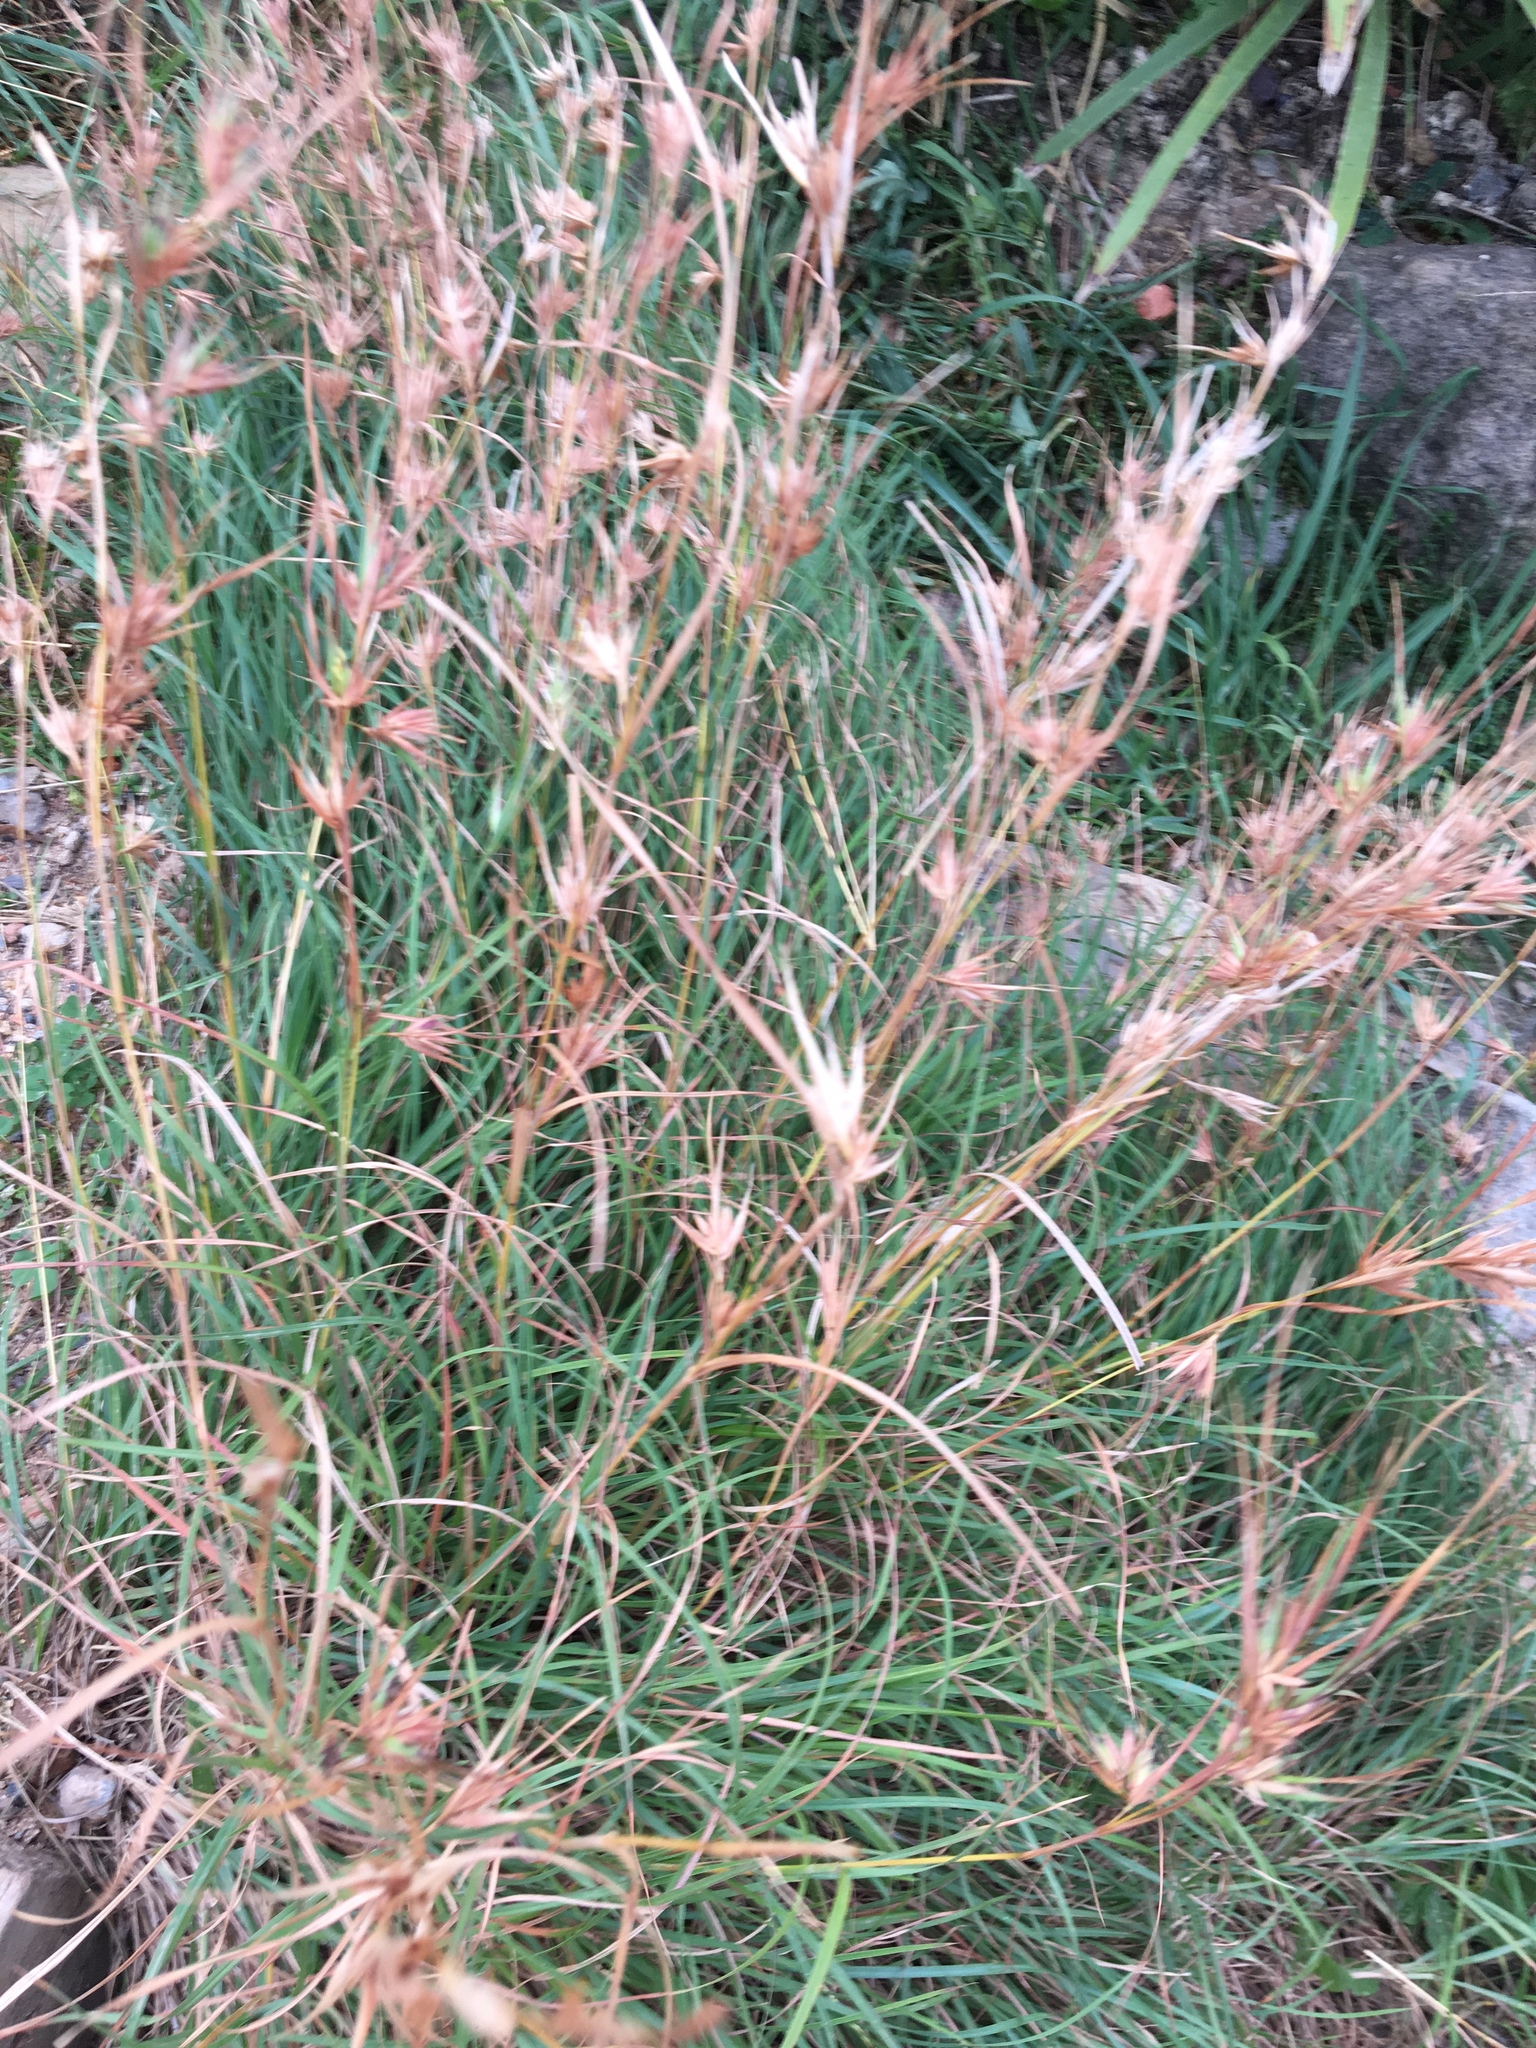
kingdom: Plantae
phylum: Tracheophyta
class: Liliopsida
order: Poales
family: Poaceae
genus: Themeda
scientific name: Themeda triandra
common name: Kangaroo grass
